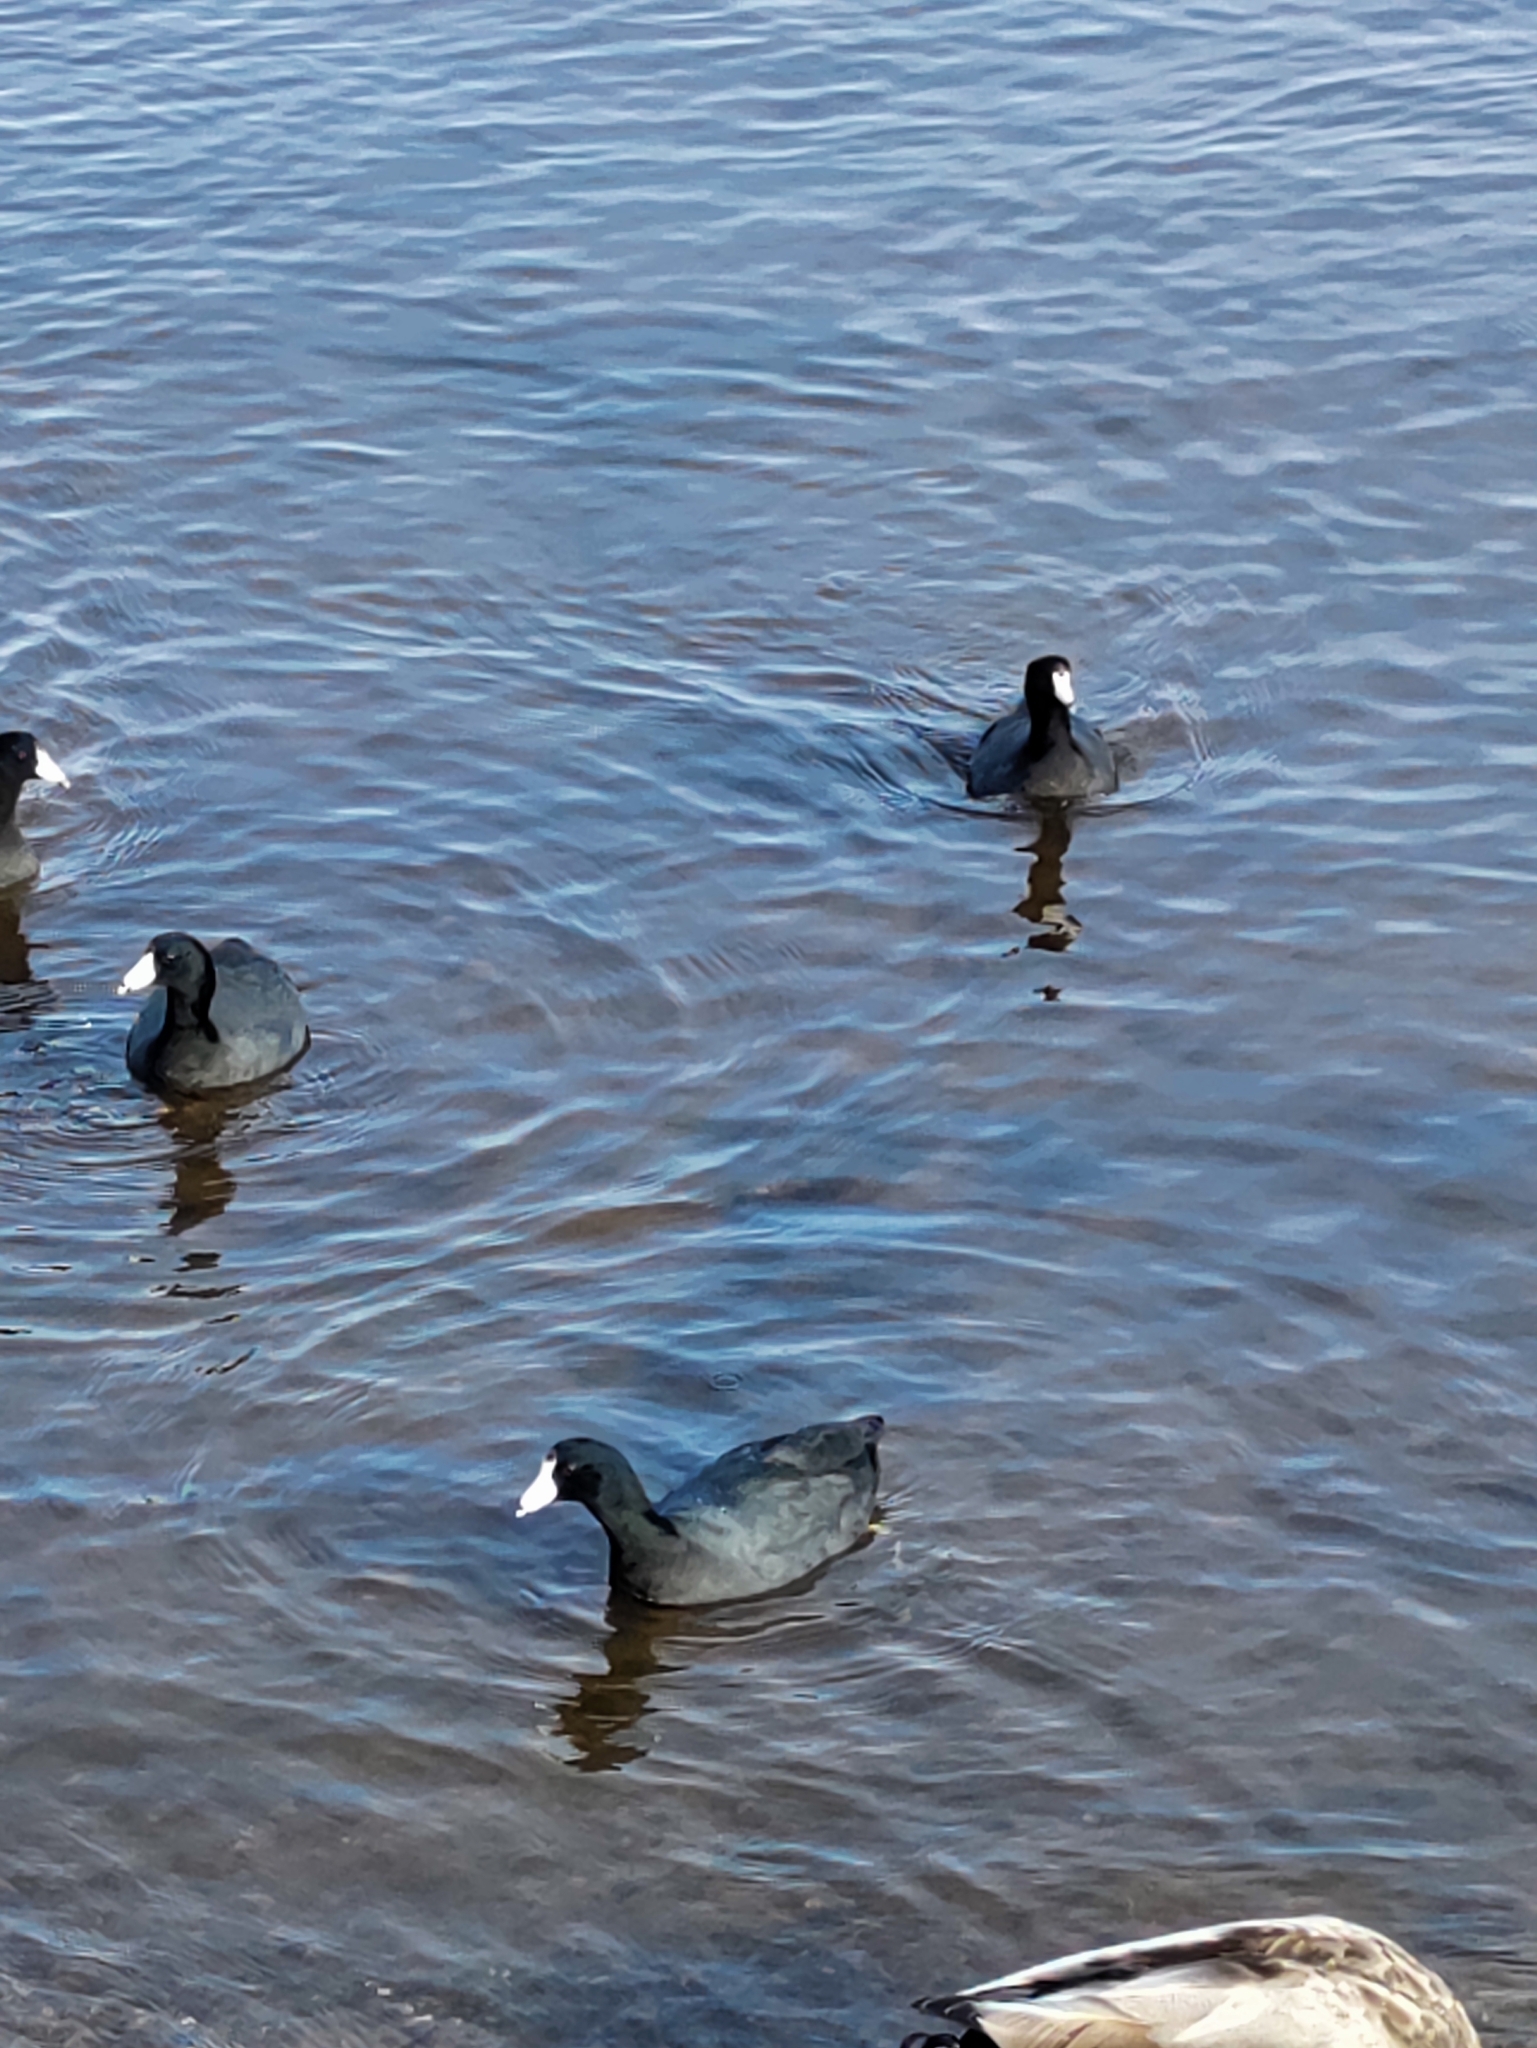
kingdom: Animalia
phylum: Chordata
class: Aves
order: Gruiformes
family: Rallidae
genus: Fulica
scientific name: Fulica americana
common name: American coot
